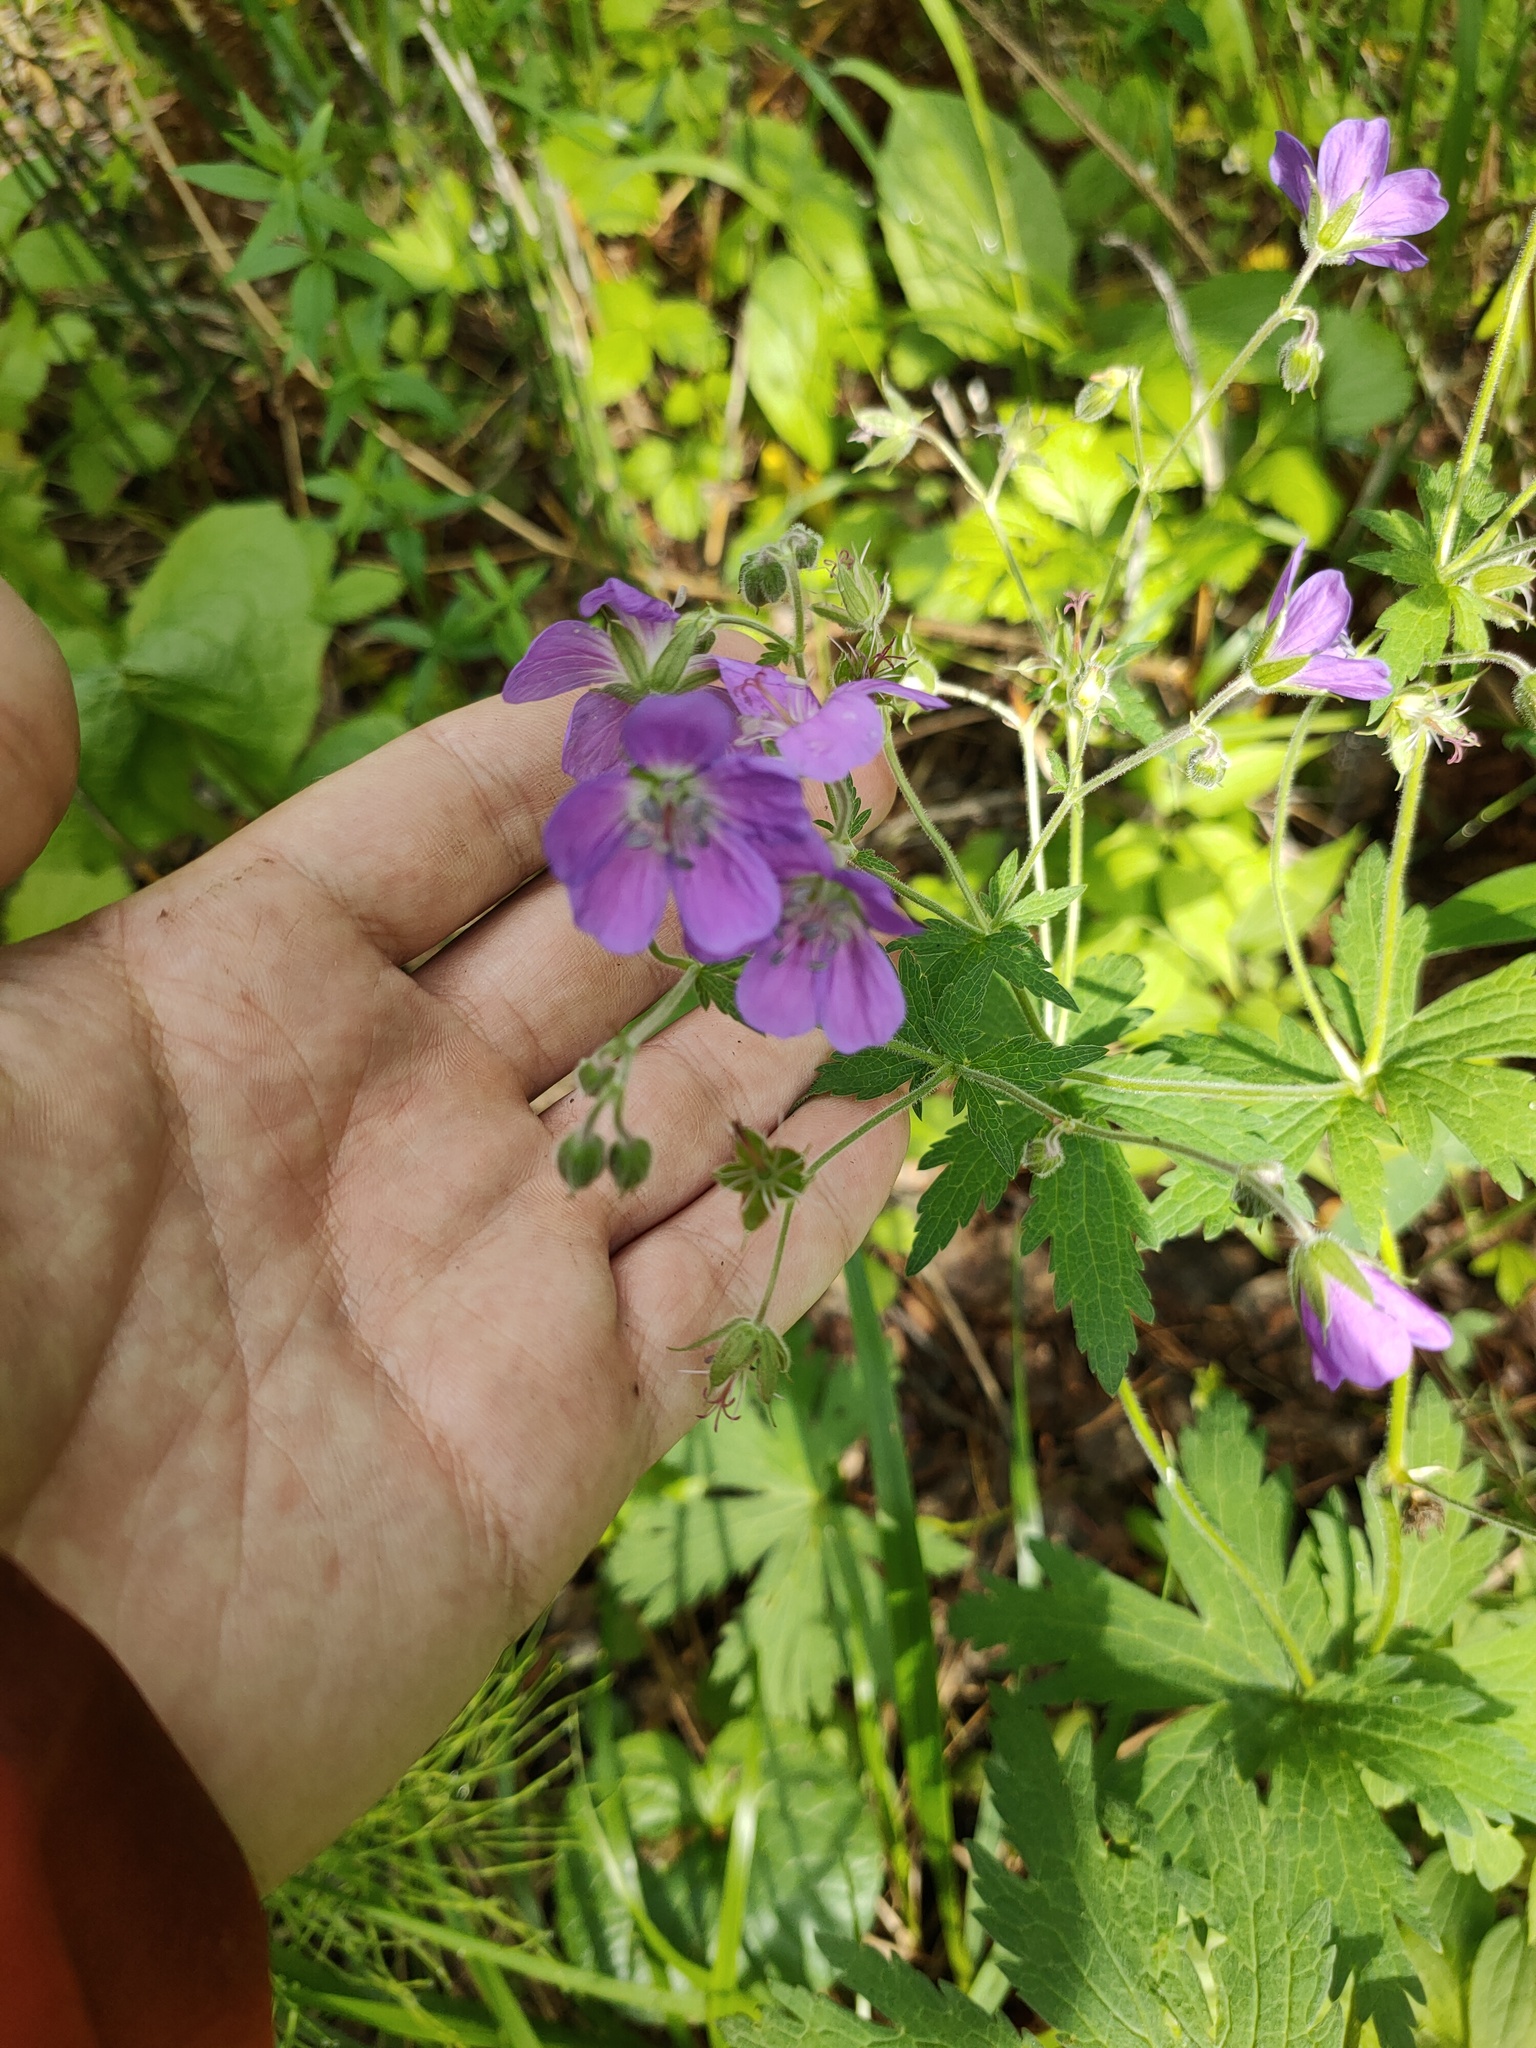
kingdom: Plantae
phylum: Tracheophyta
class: Magnoliopsida
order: Geraniales
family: Geraniaceae
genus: Geranium
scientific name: Geranium sylvaticum
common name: Wood crane's-bill
